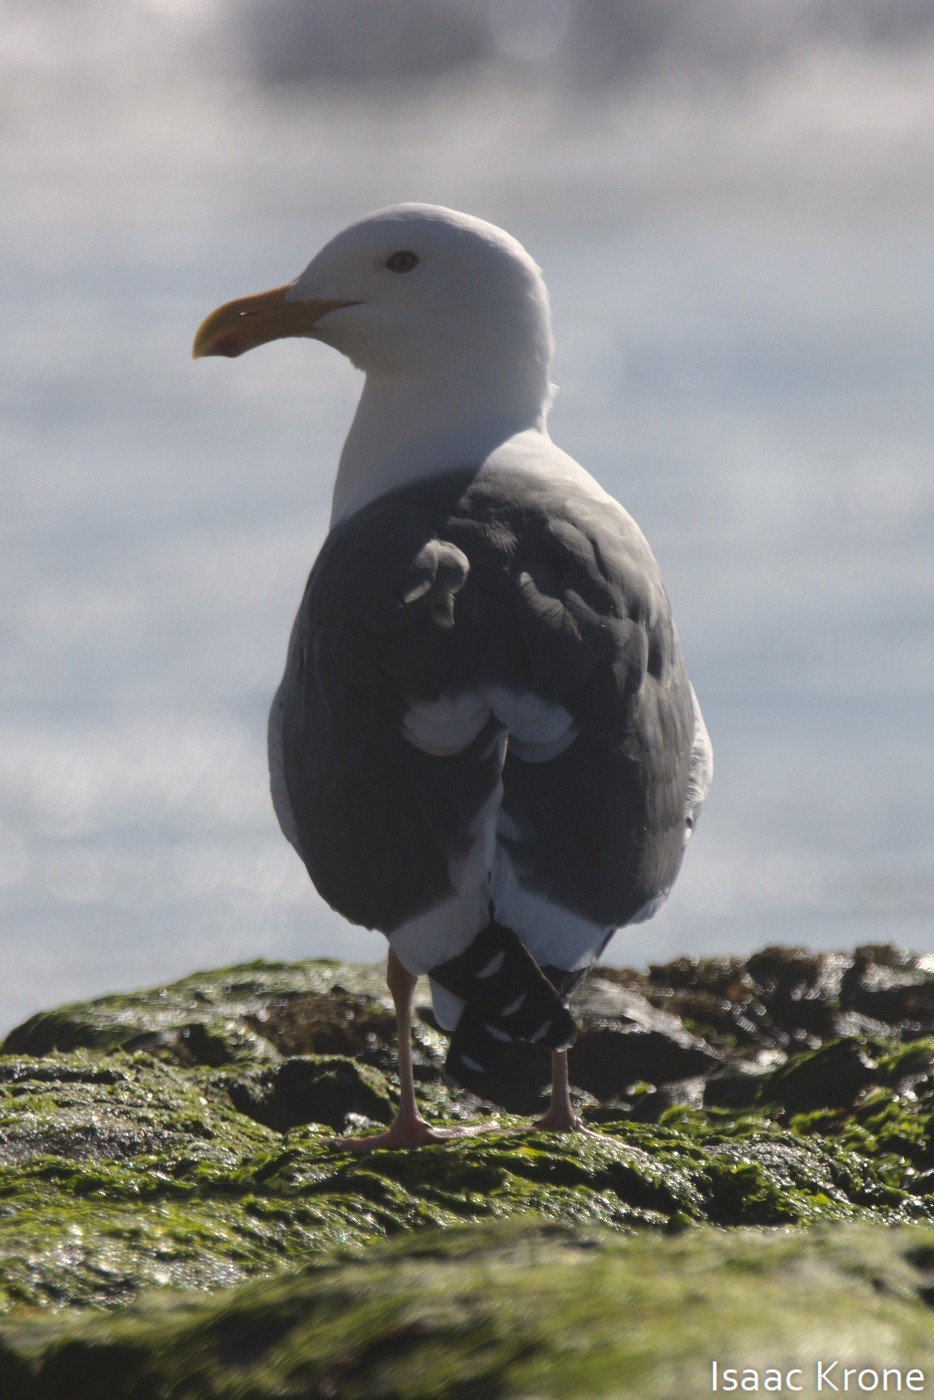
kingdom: Animalia
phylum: Chordata
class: Aves
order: Charadriiformes
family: Laridae
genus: Larus
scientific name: Larus occidentalis
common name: Western gull
